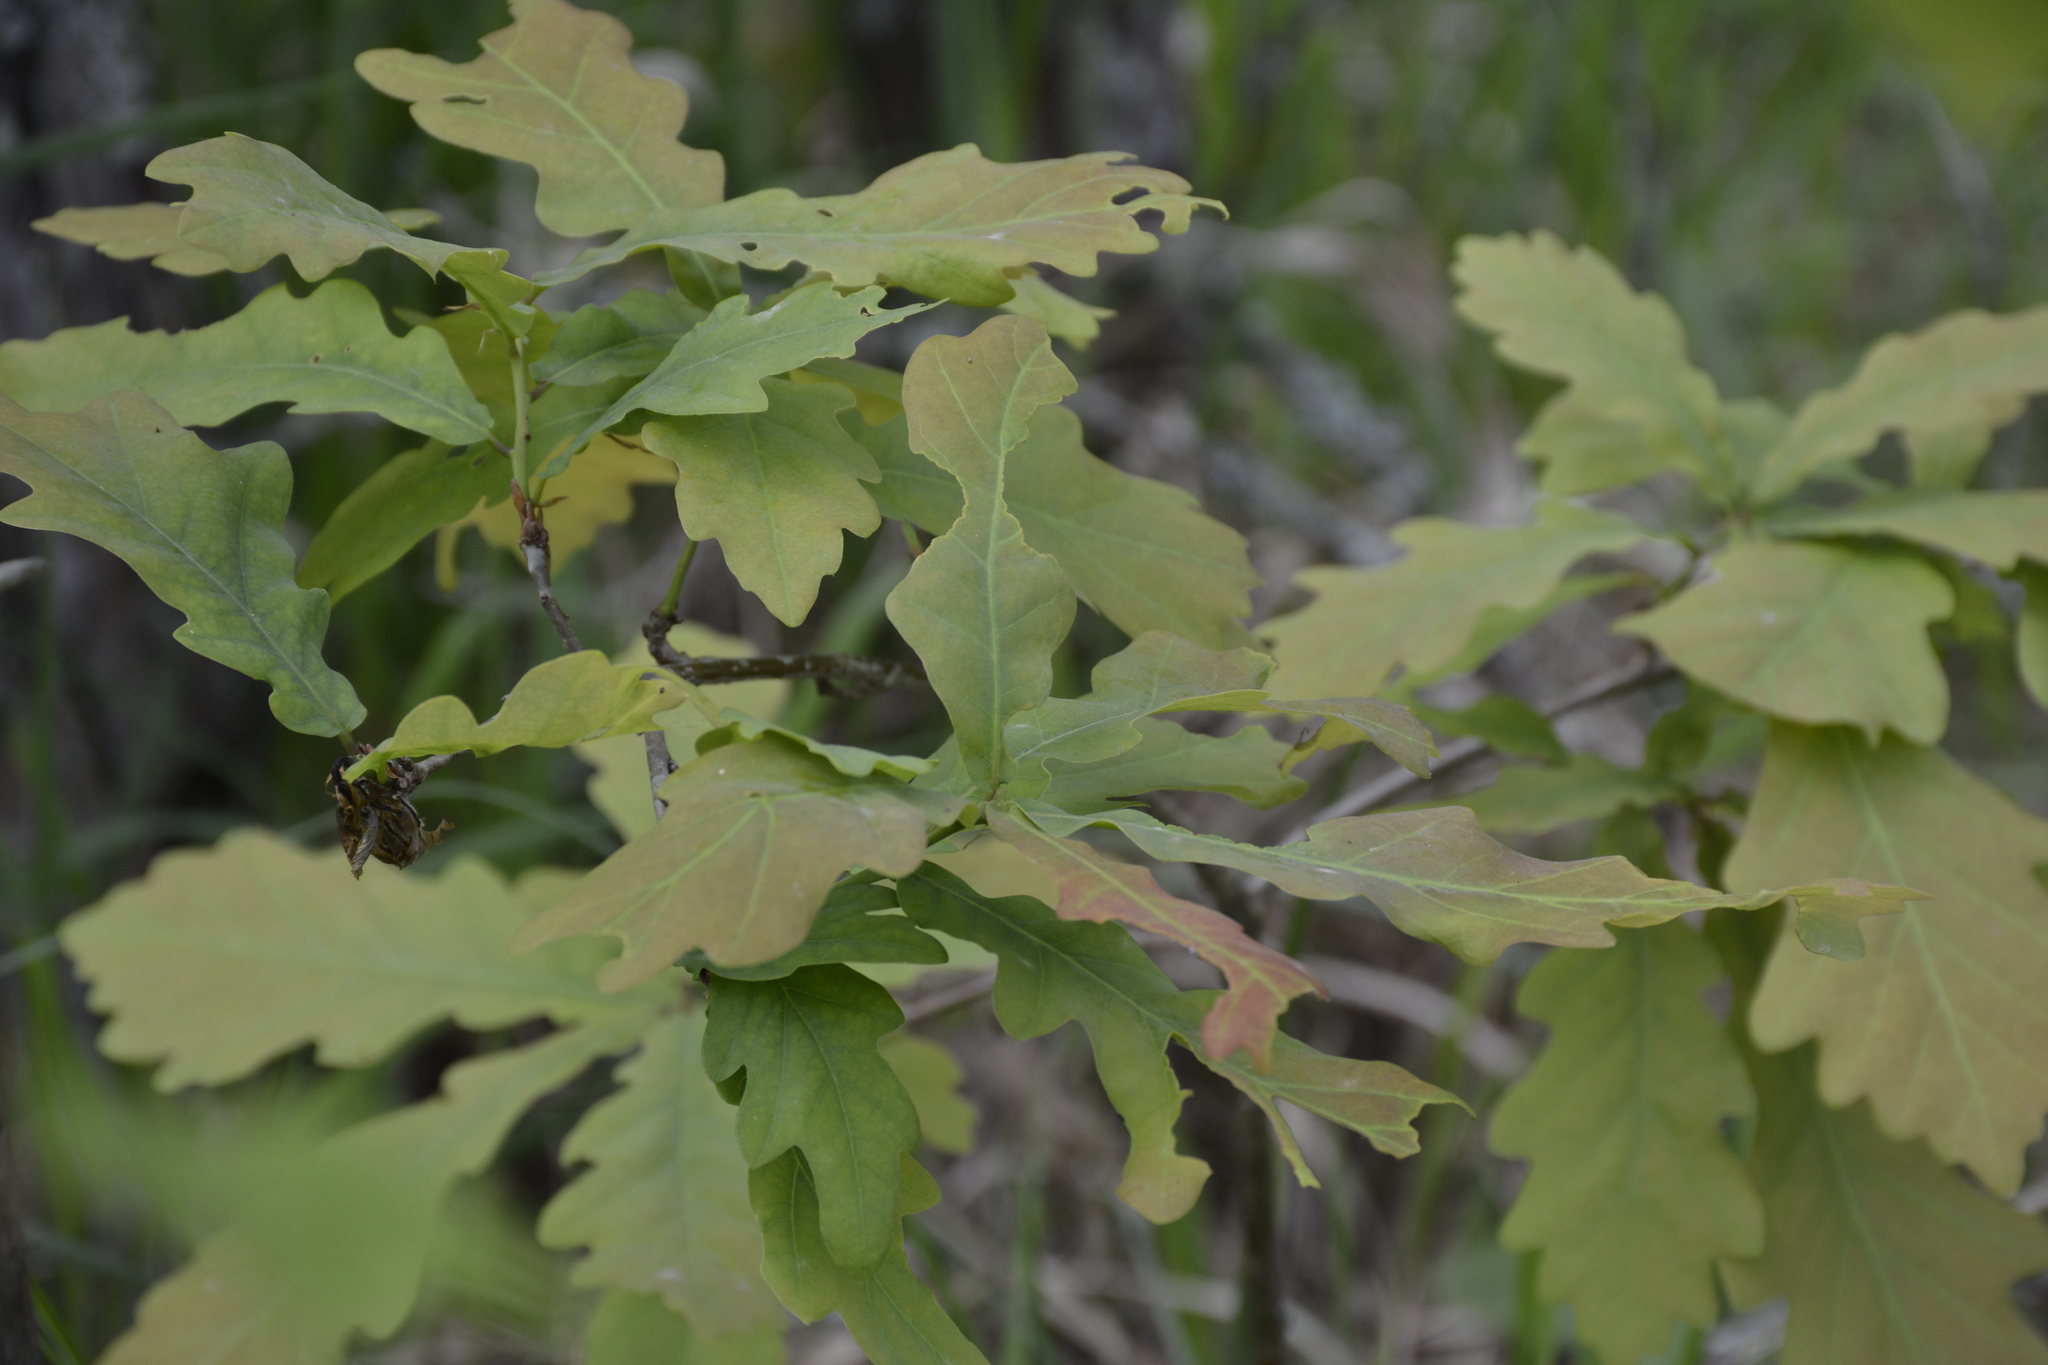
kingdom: Plantae
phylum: Tracheophyta
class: Magnoliopsida
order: Fagales
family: Fagaceae
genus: Quercus
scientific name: Quercus robur
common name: Pedunculate oak
